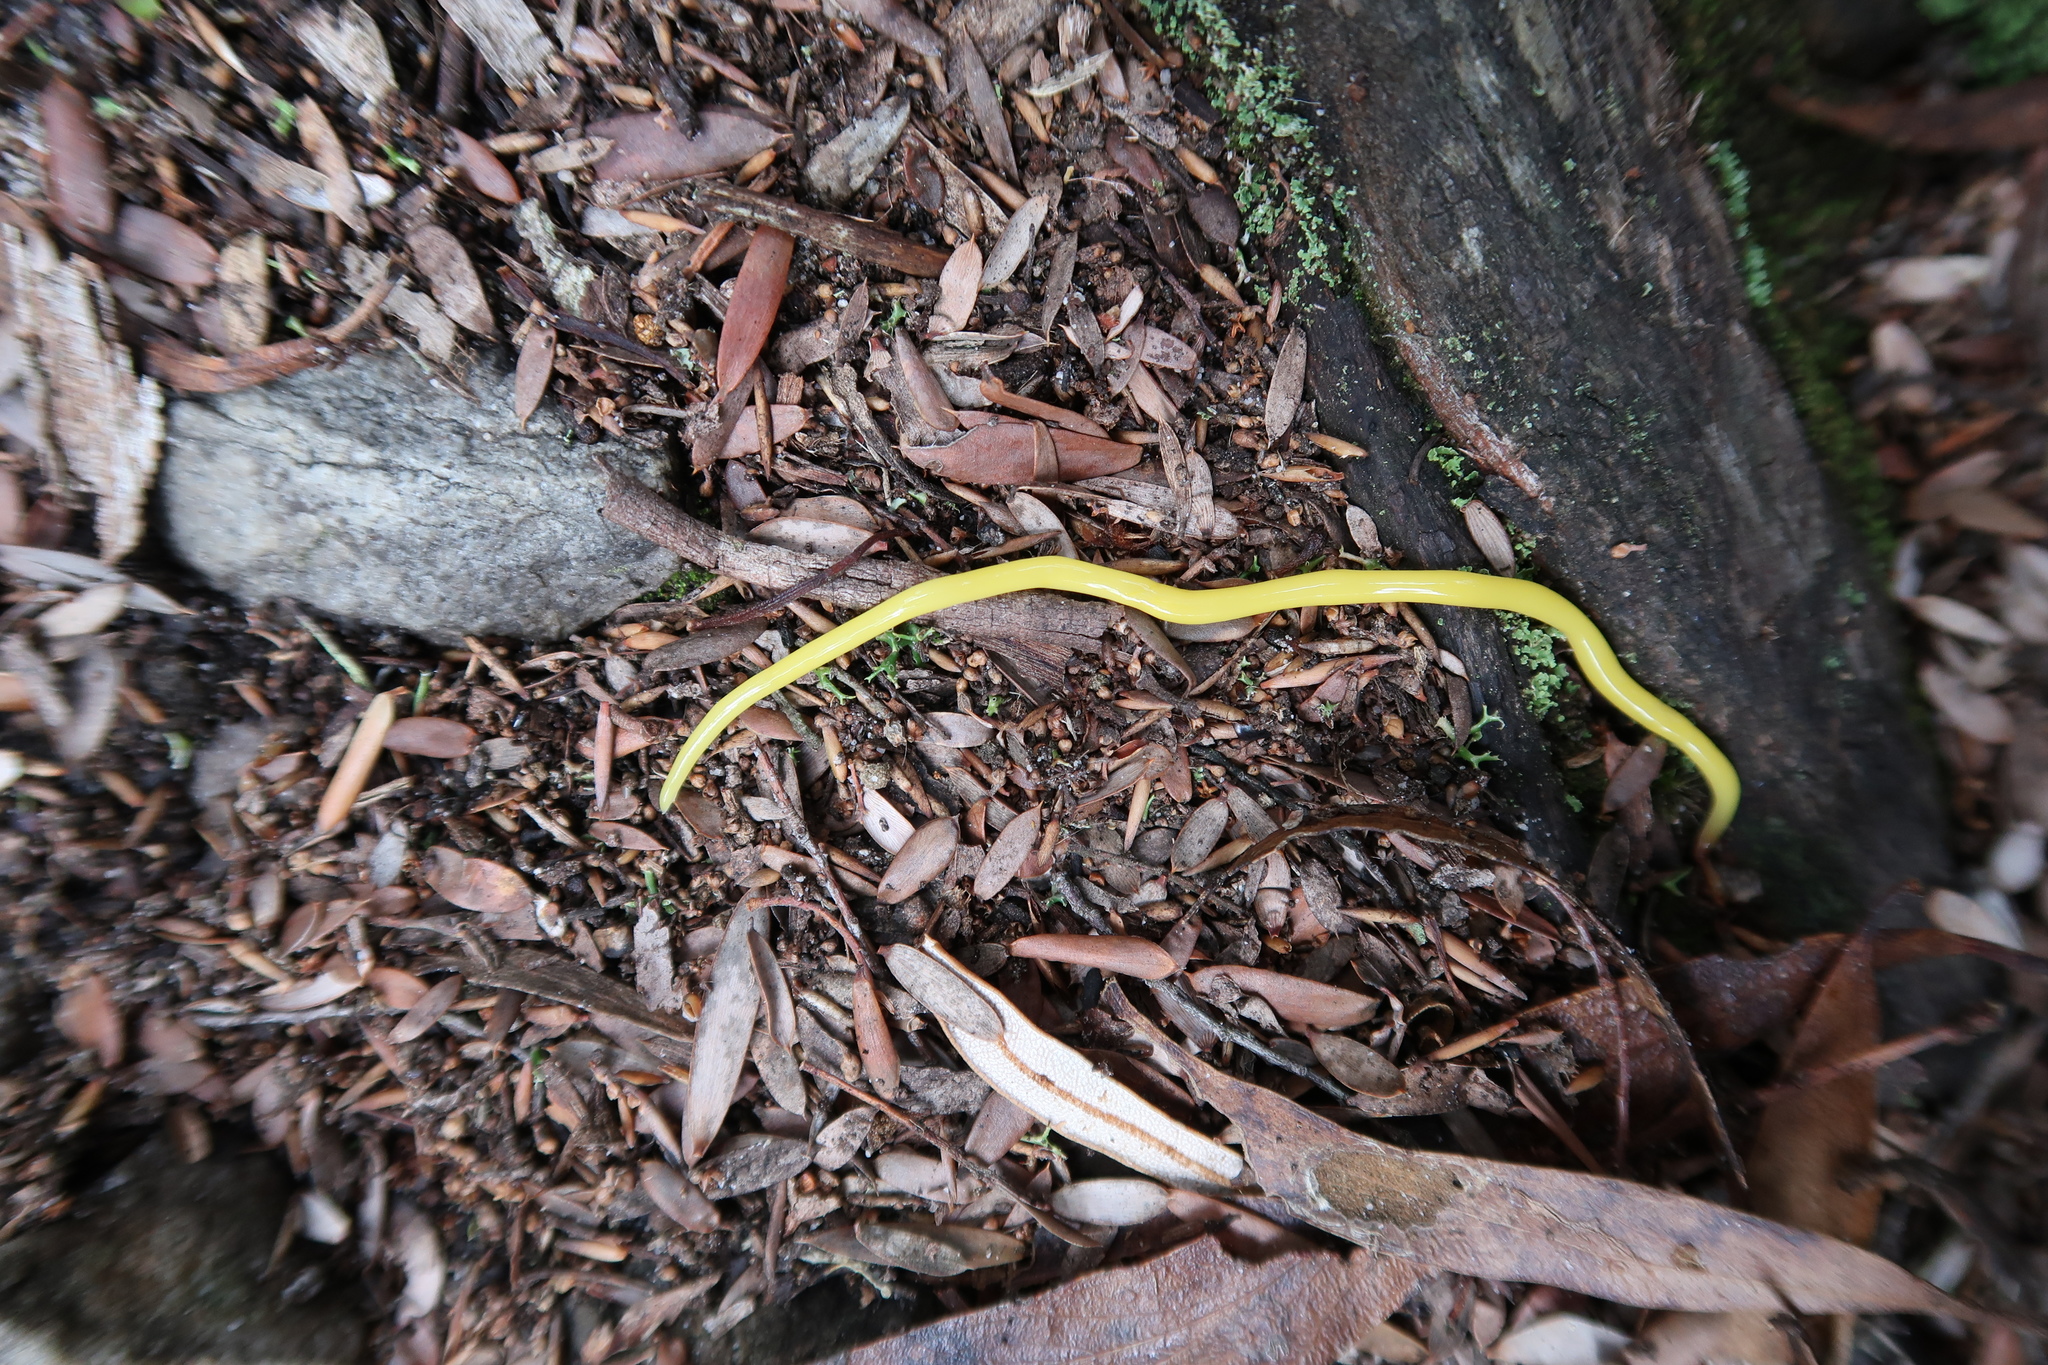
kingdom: Animalia
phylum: Platyhelminthes
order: Tricladida
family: Geoplanidae
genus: Fletchamia
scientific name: Fletchamia sugdeni
